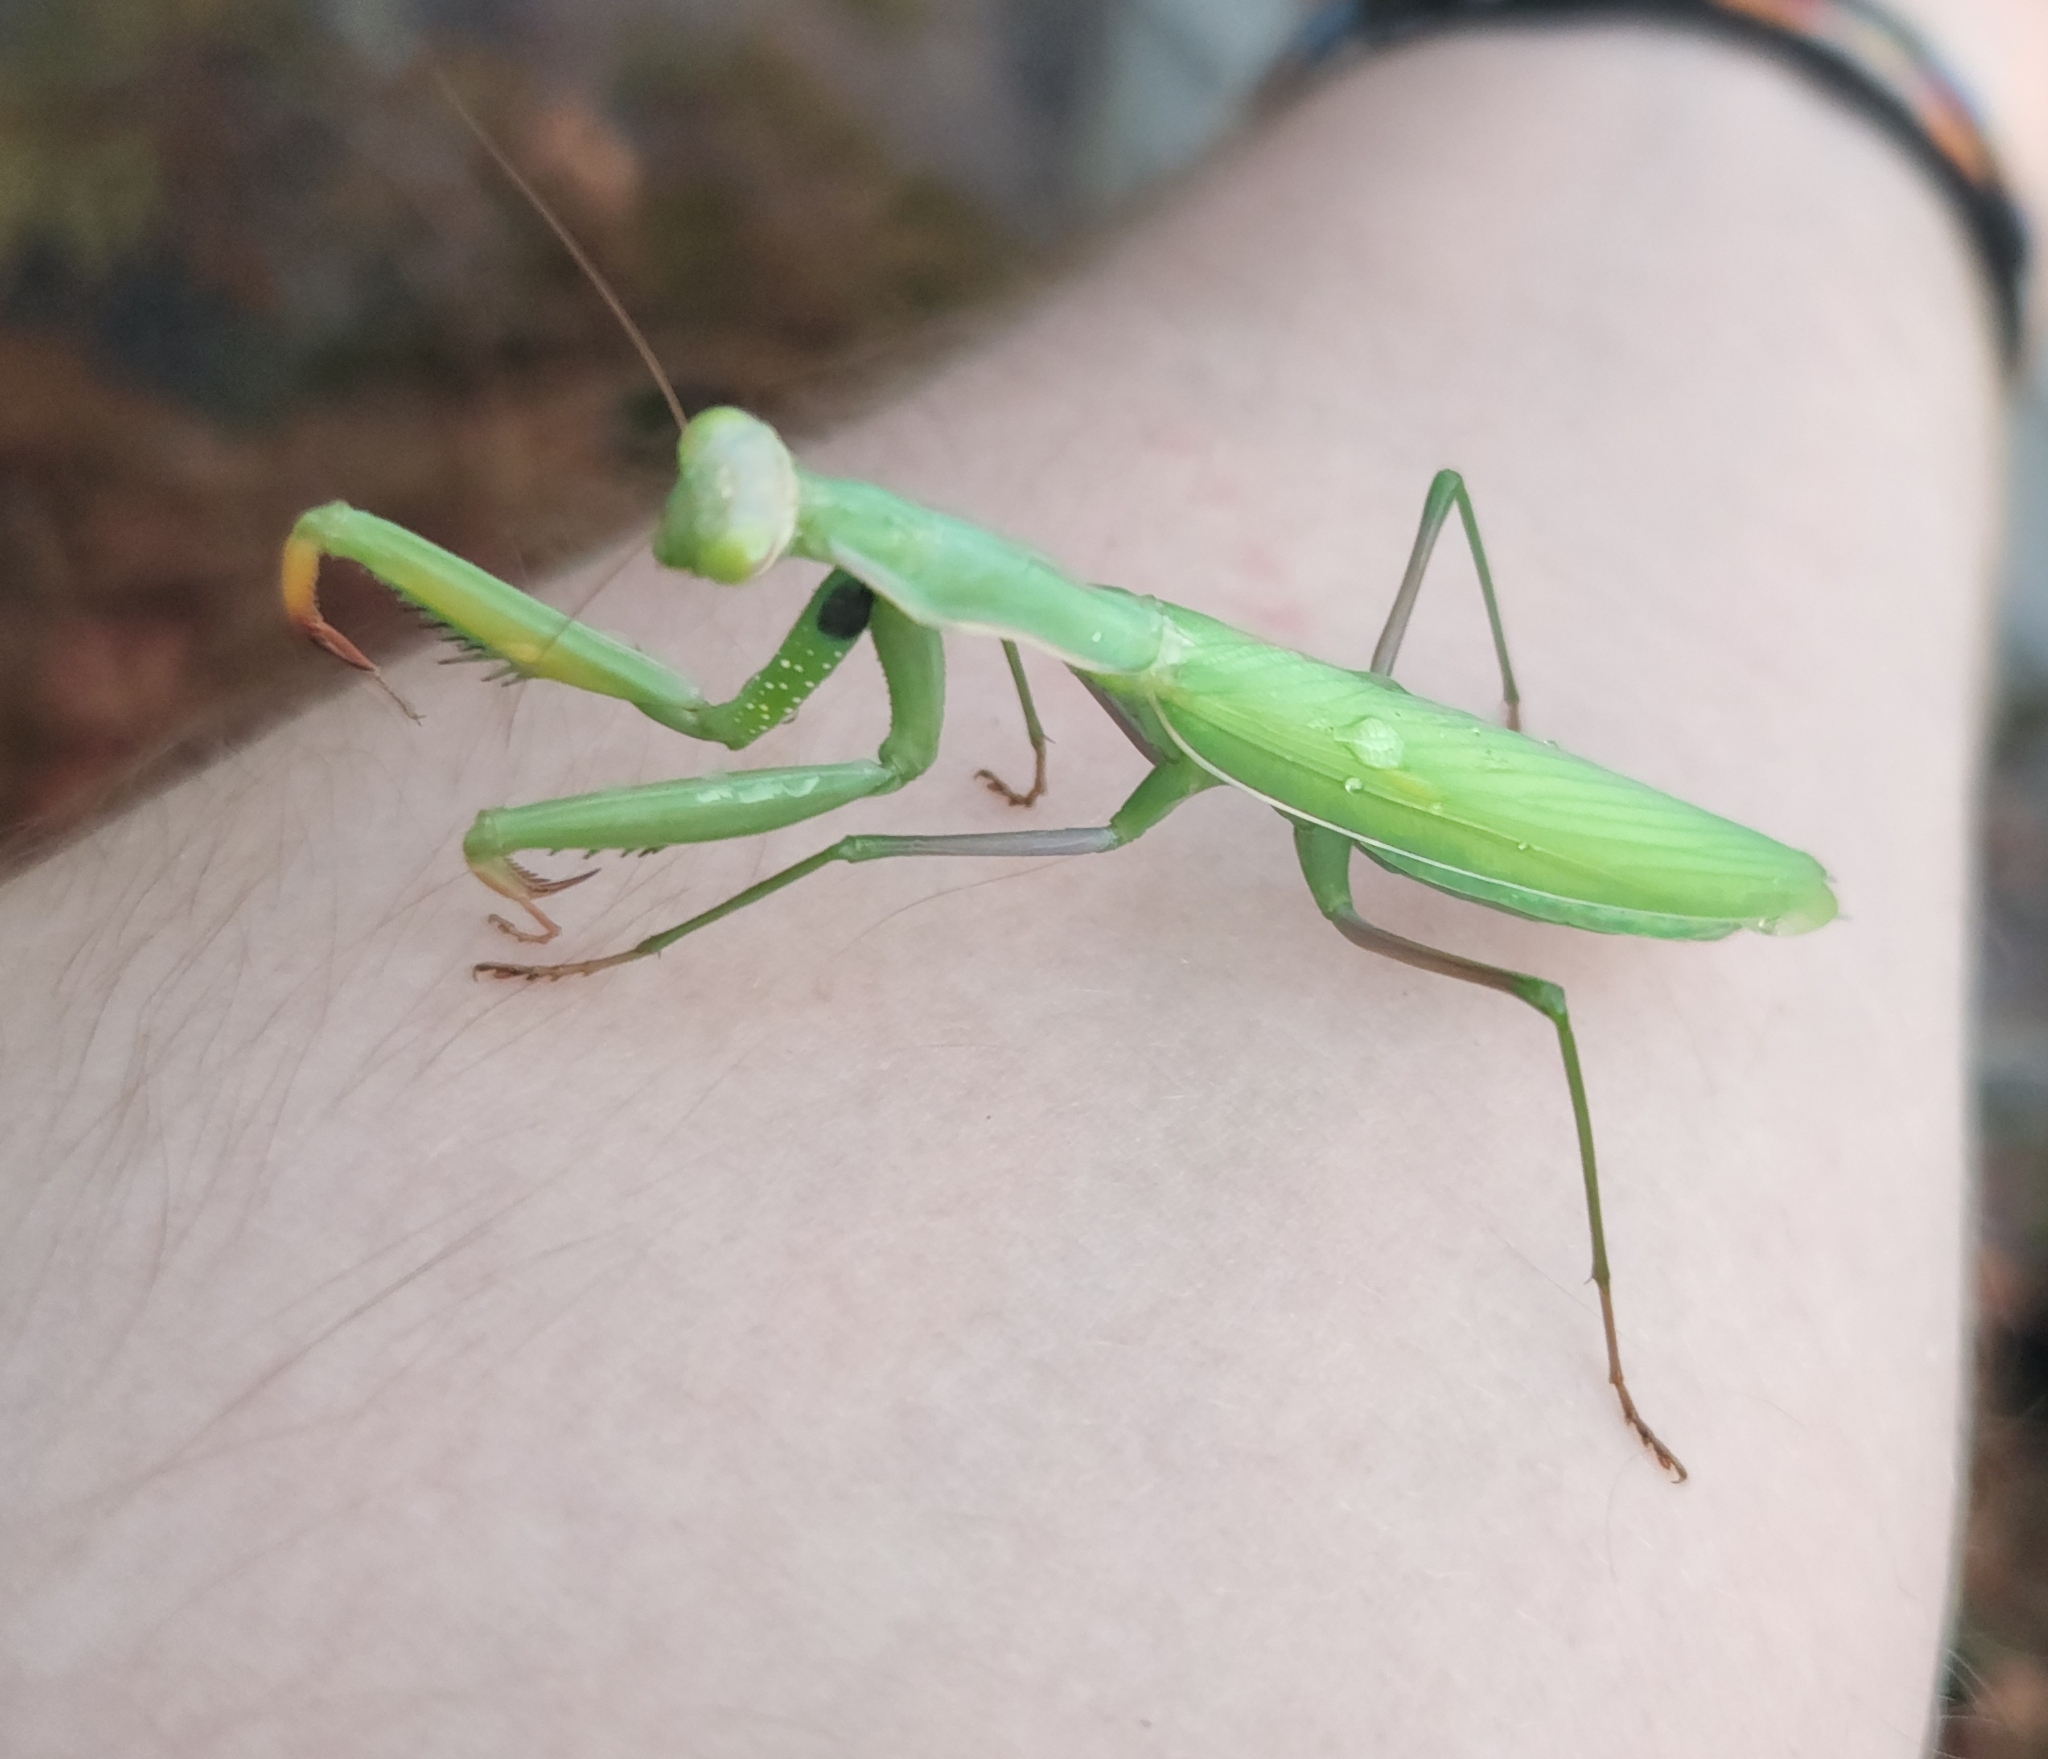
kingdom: Animalia
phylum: Arthropoda
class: Insecta
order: Mantodea
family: Mantidae
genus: Mantis
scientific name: Mantis religiosa
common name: Praying mantis
